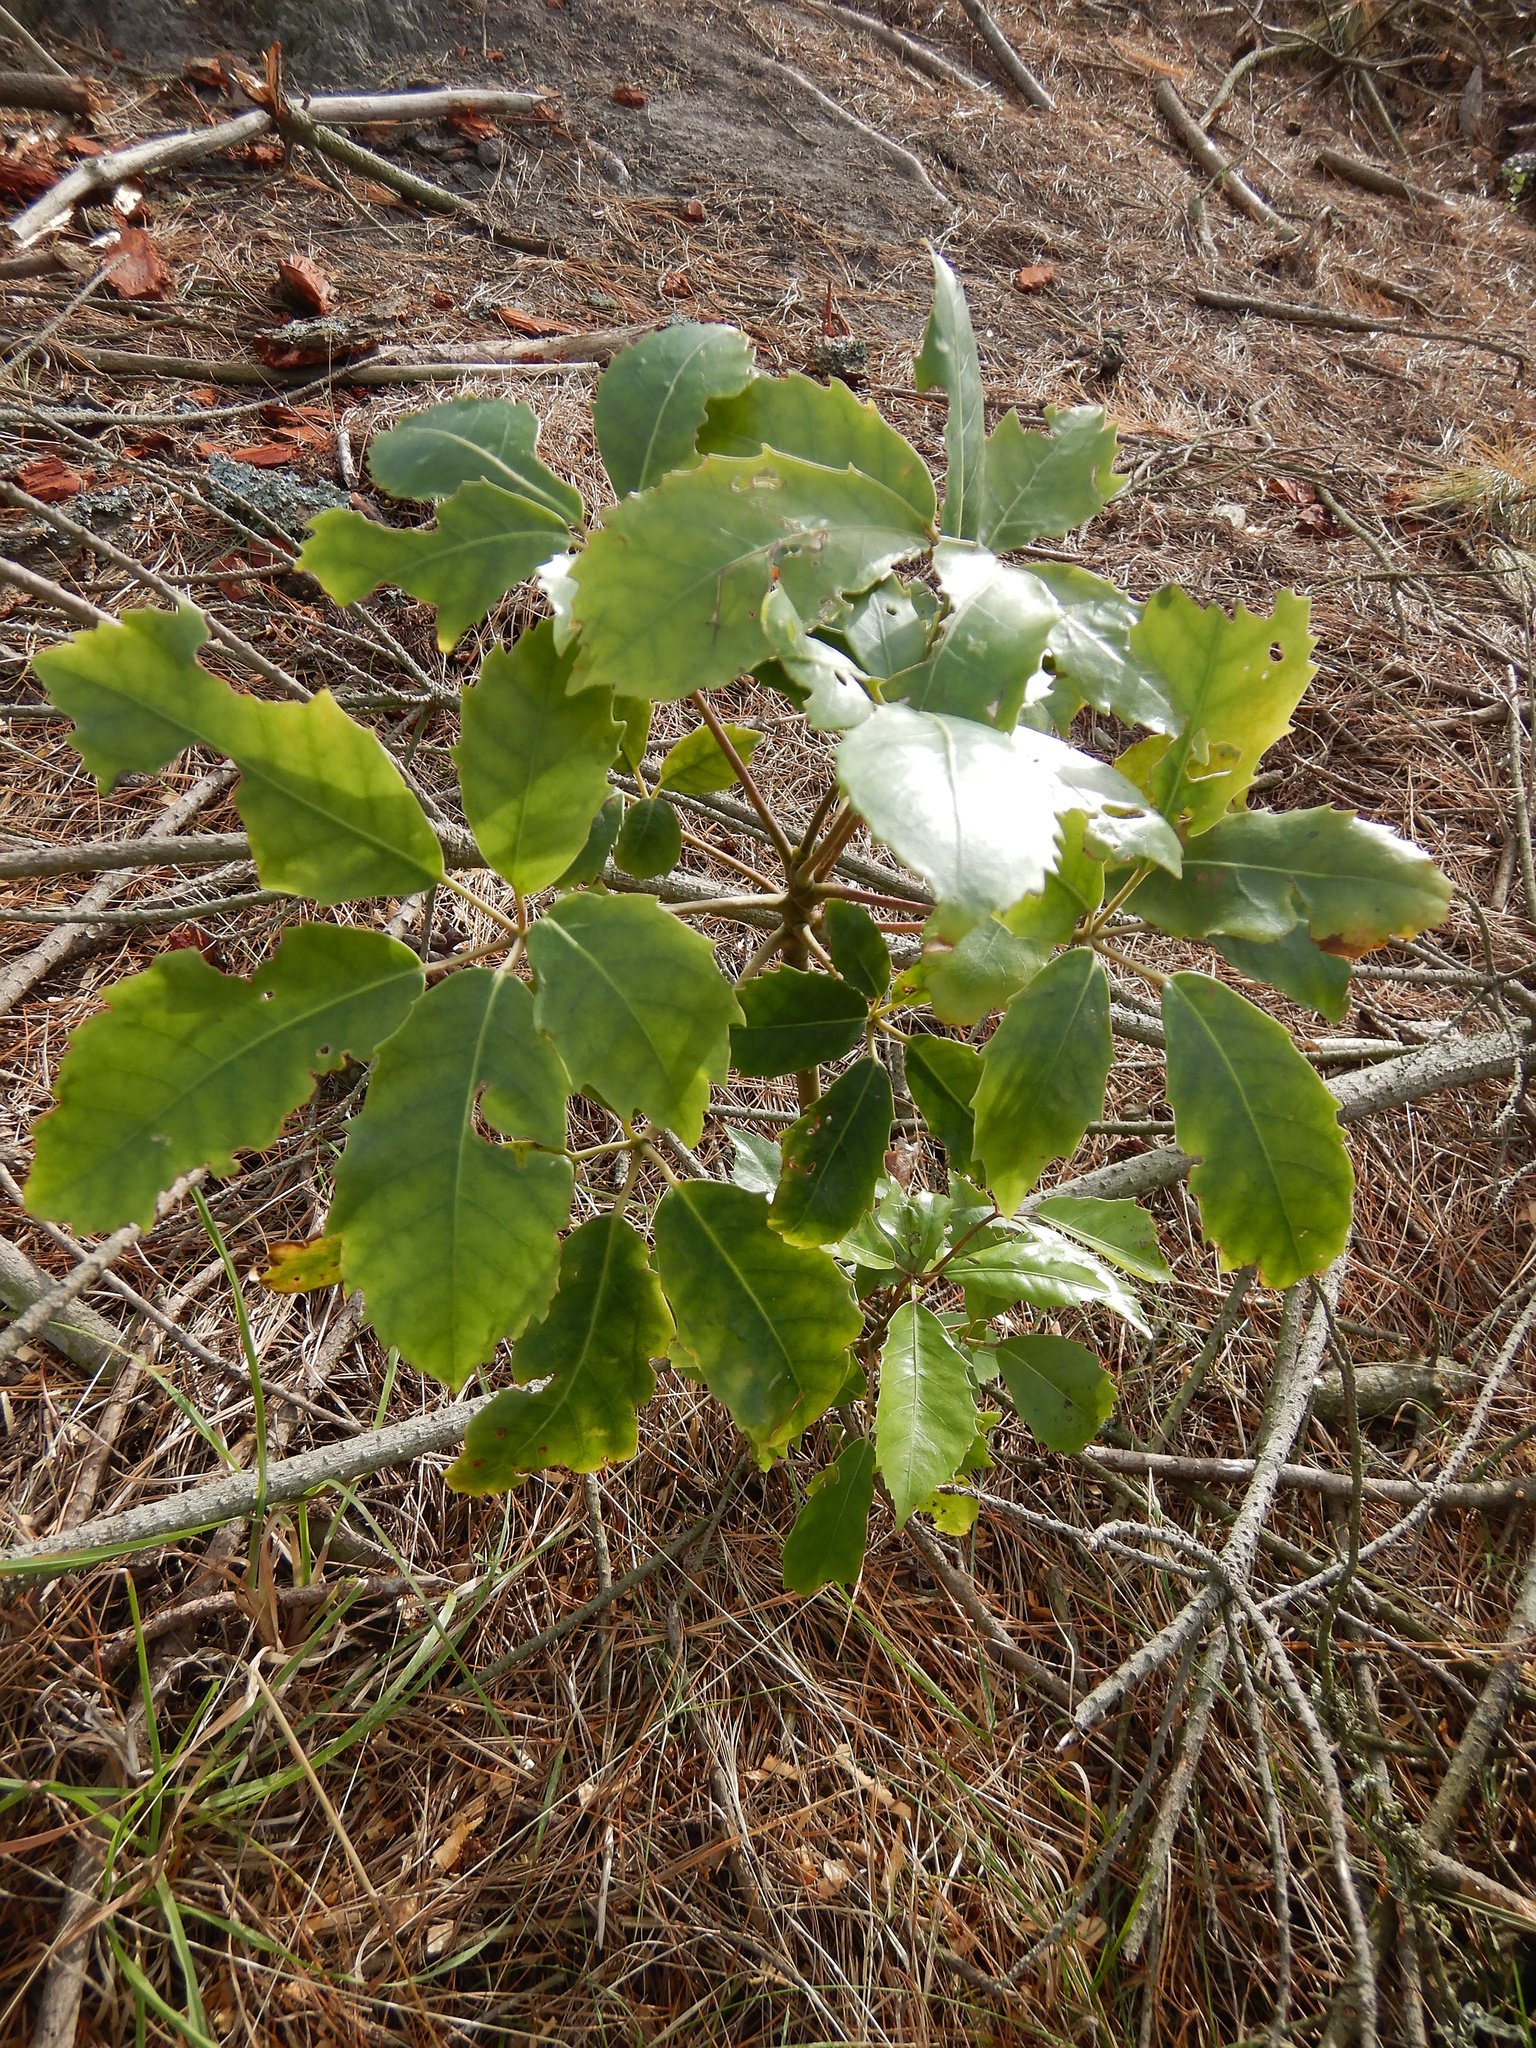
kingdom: Plantae
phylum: Tracheophyta
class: Magnoliopsida
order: Apiales
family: Araliaceae
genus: Neopanax
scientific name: Neopanax arboreus
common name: Five-fingers
